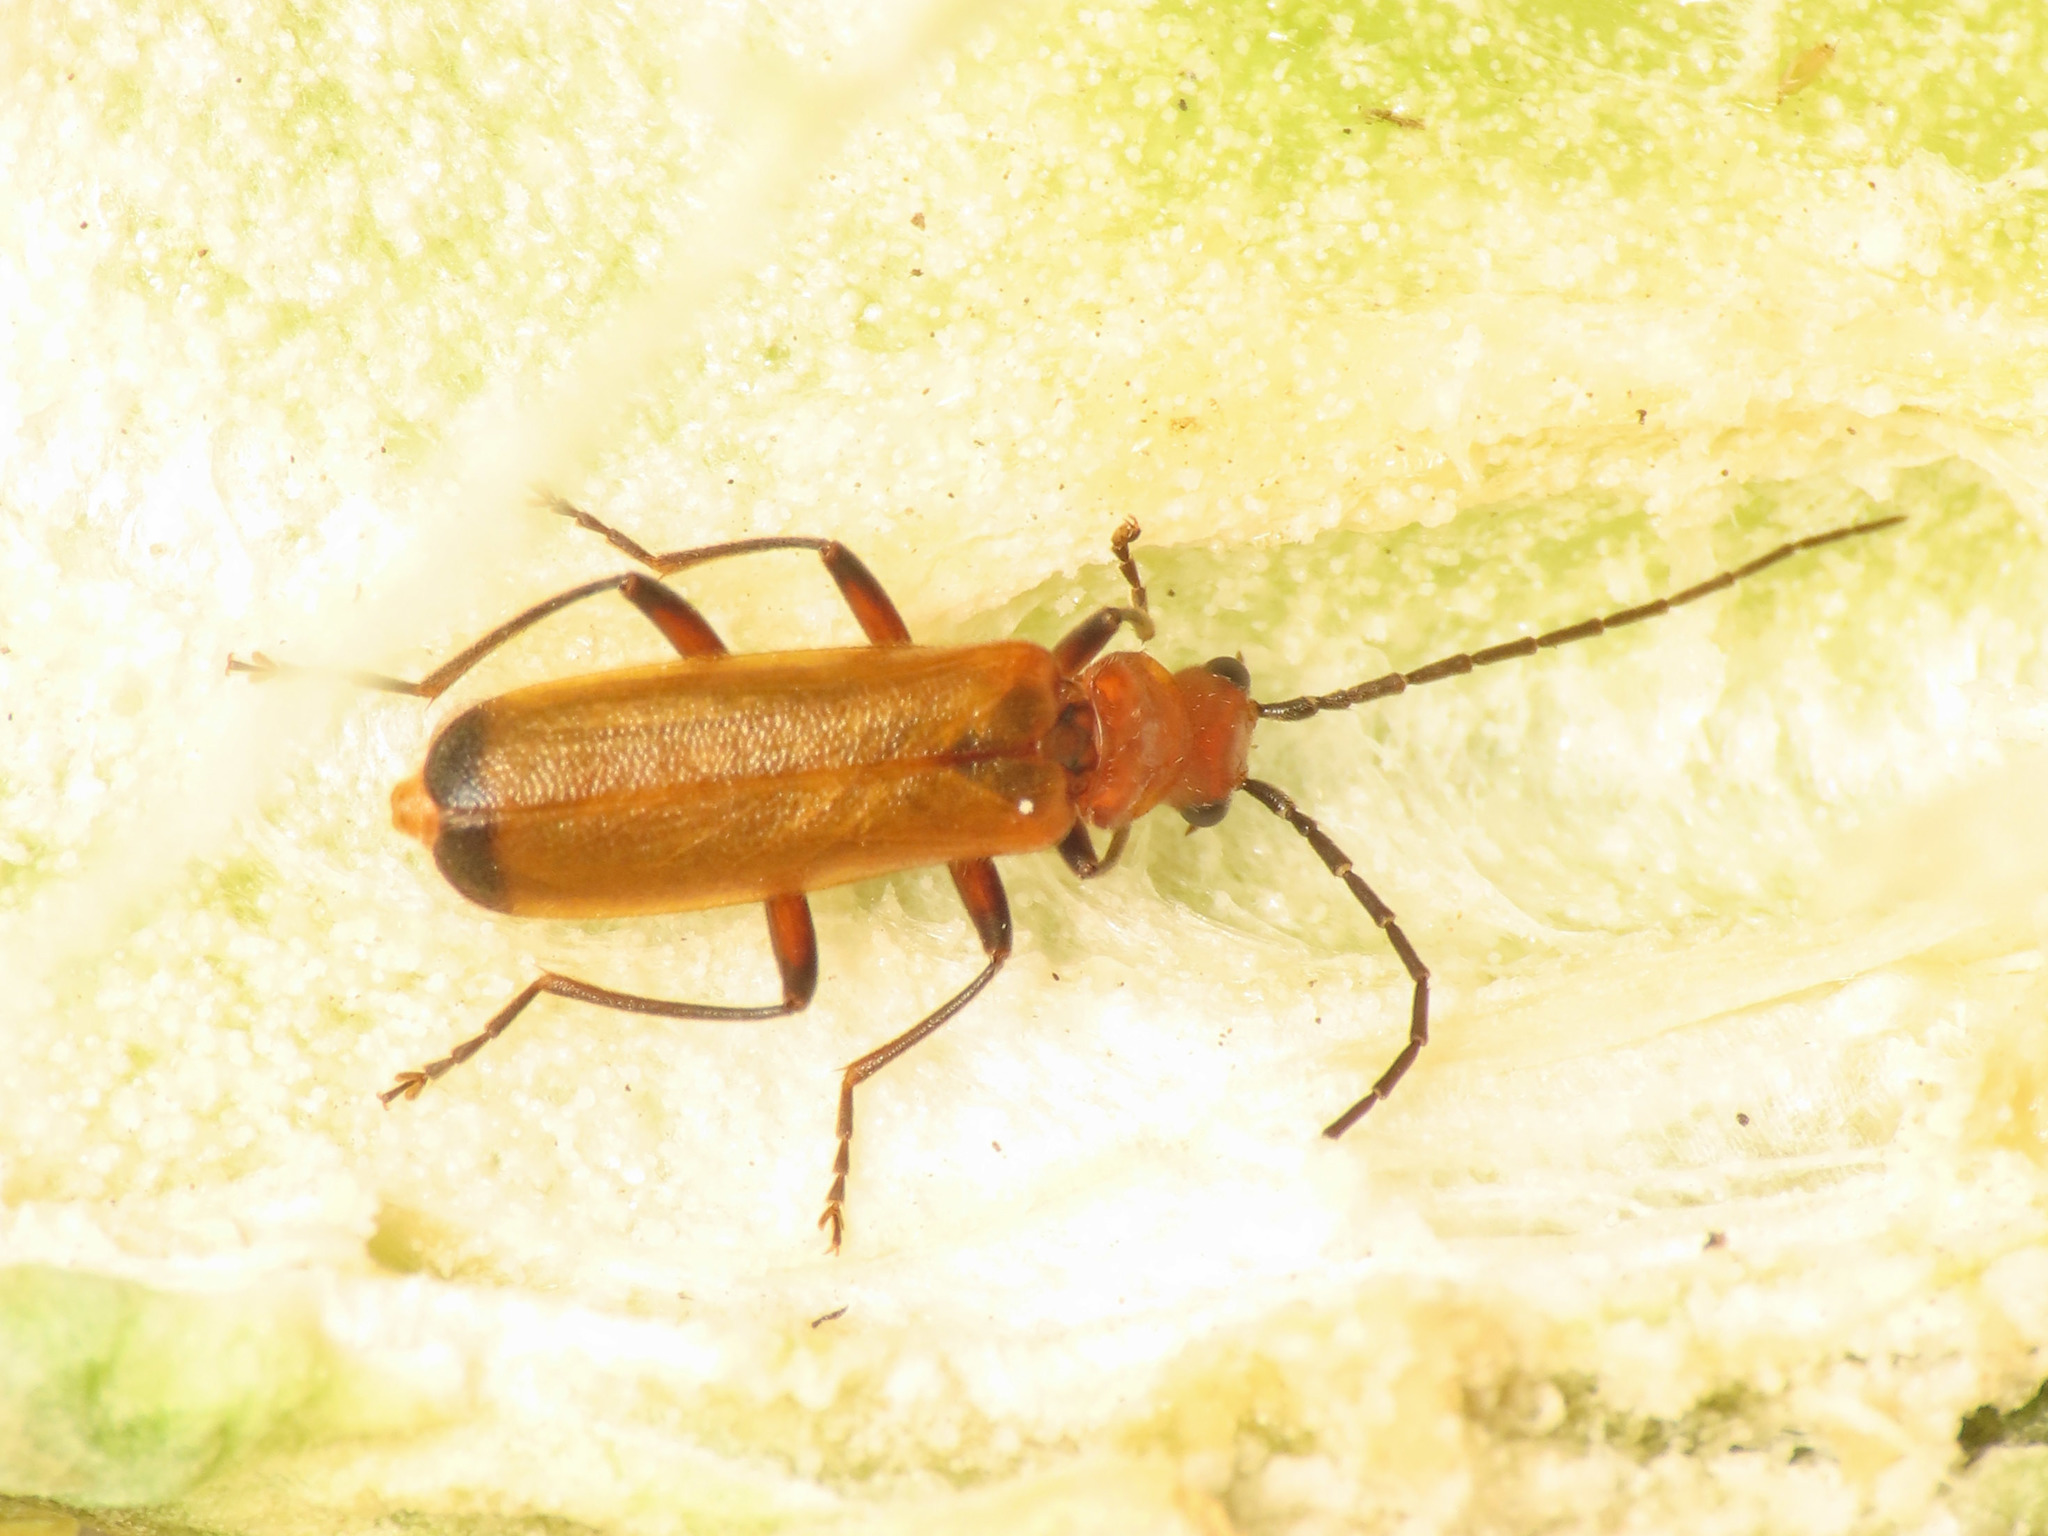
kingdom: Animalia
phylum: Arthropoda
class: Insecta
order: Coleoptera
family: Cantharidae
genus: Rhagonycha
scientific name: Rhagonycha chlorotica
